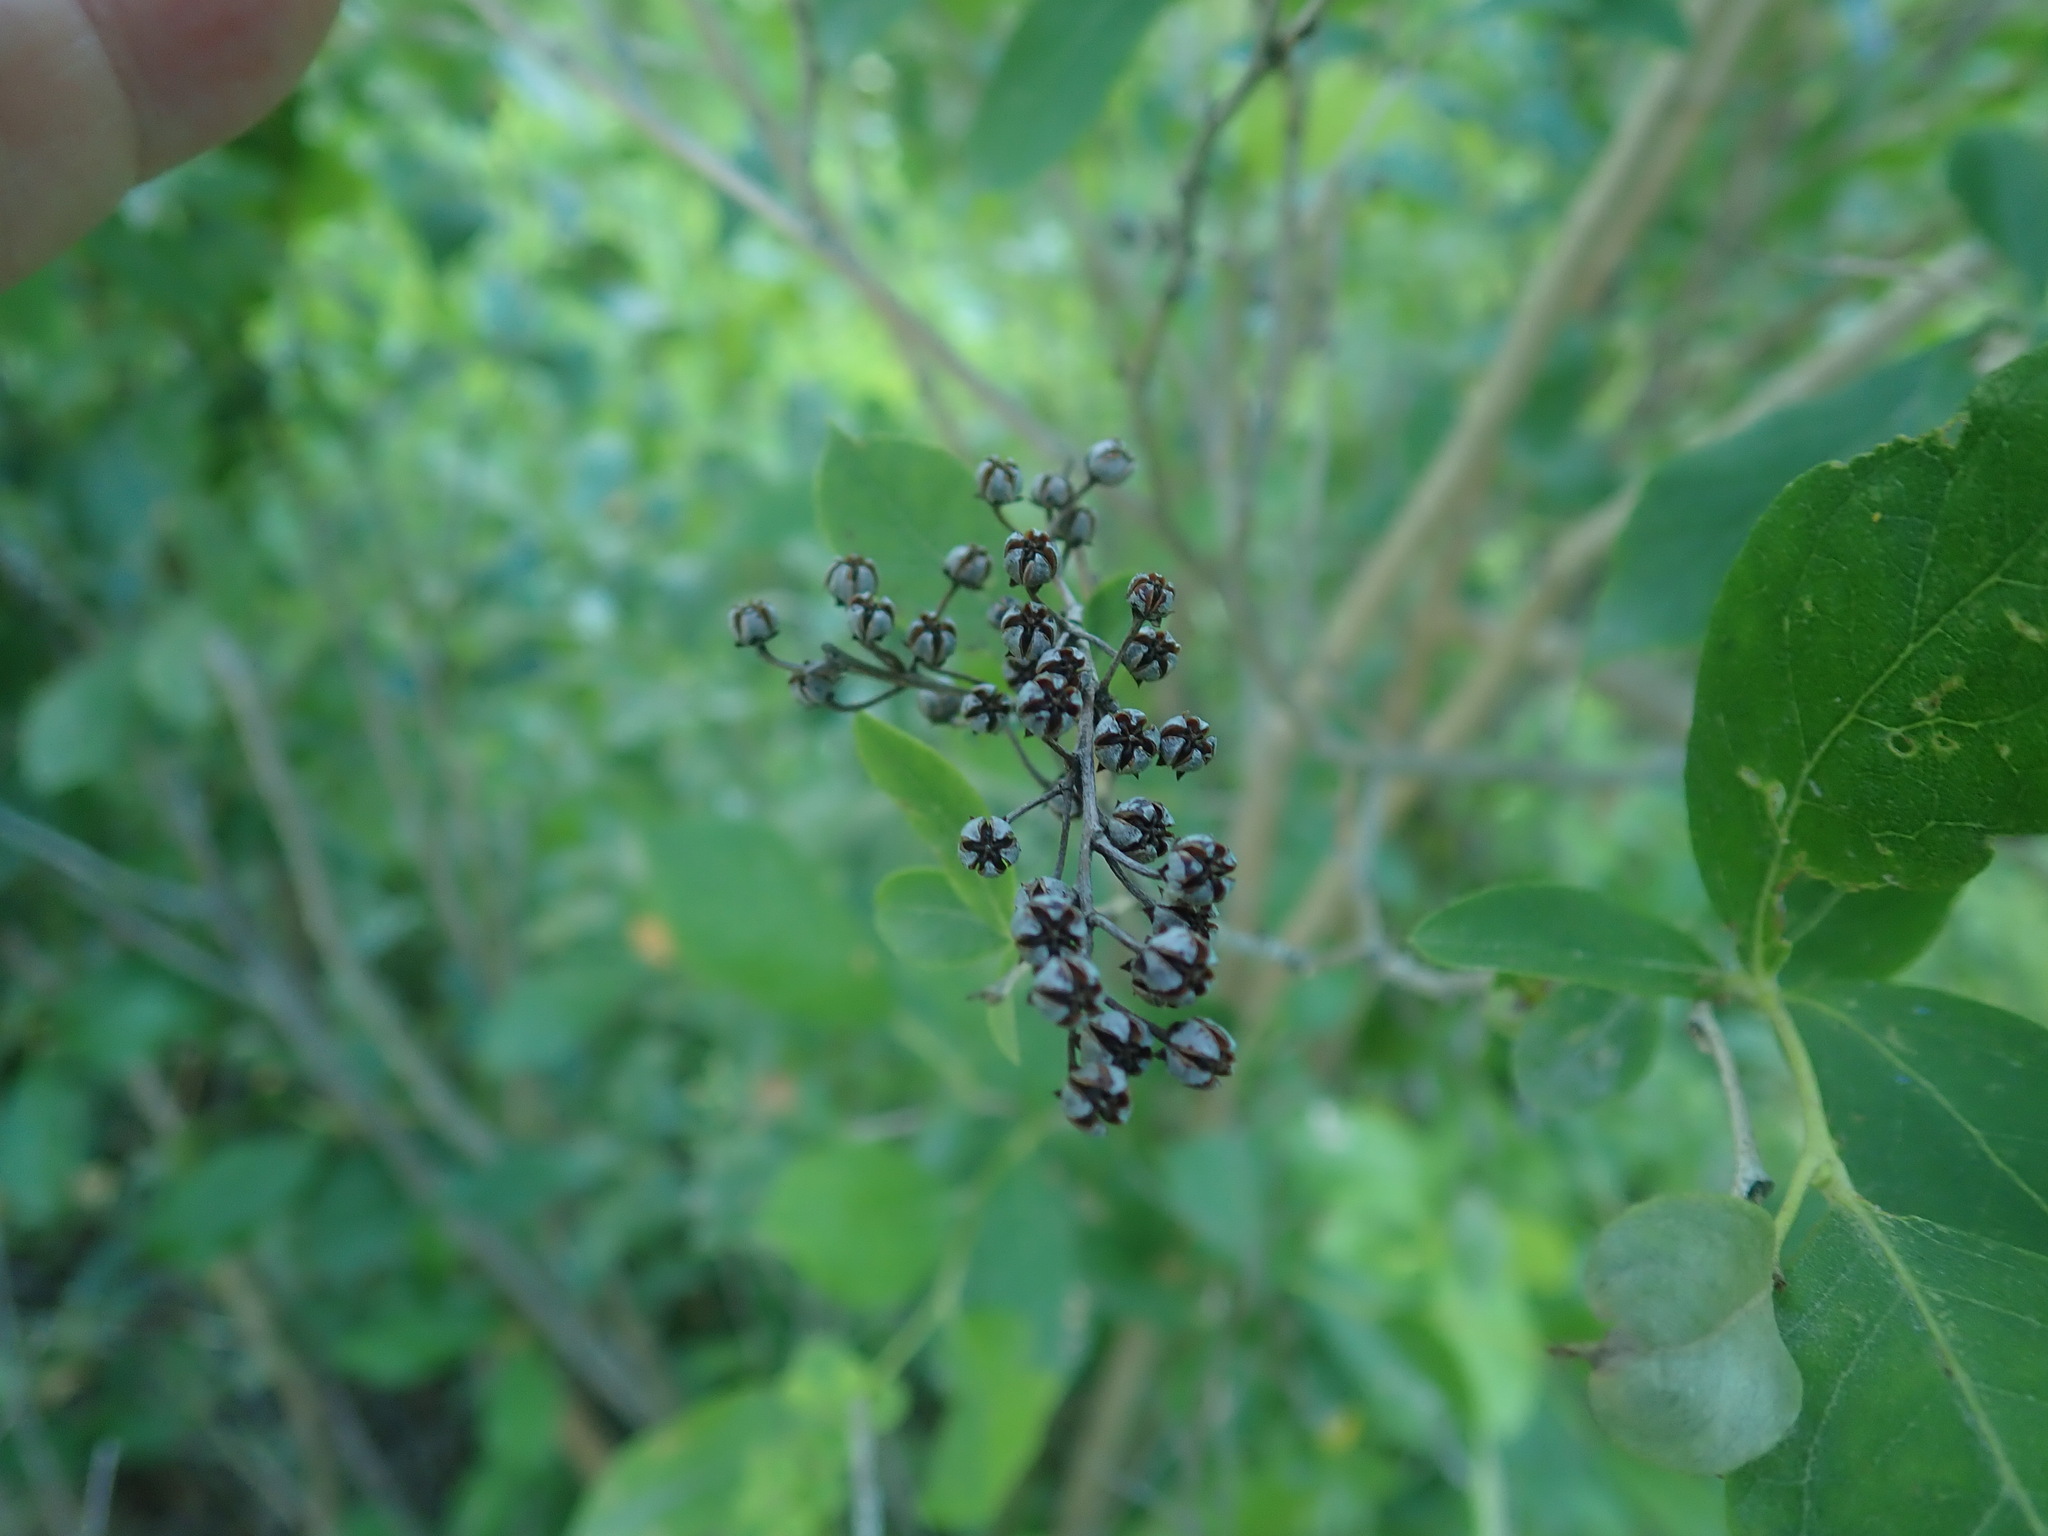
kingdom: Plantae
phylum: Tracheophyta
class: Magnoliopsida
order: Ericales
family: Ericaceae
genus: Lyonia
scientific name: Lyonia ligustrina
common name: Maleberry
